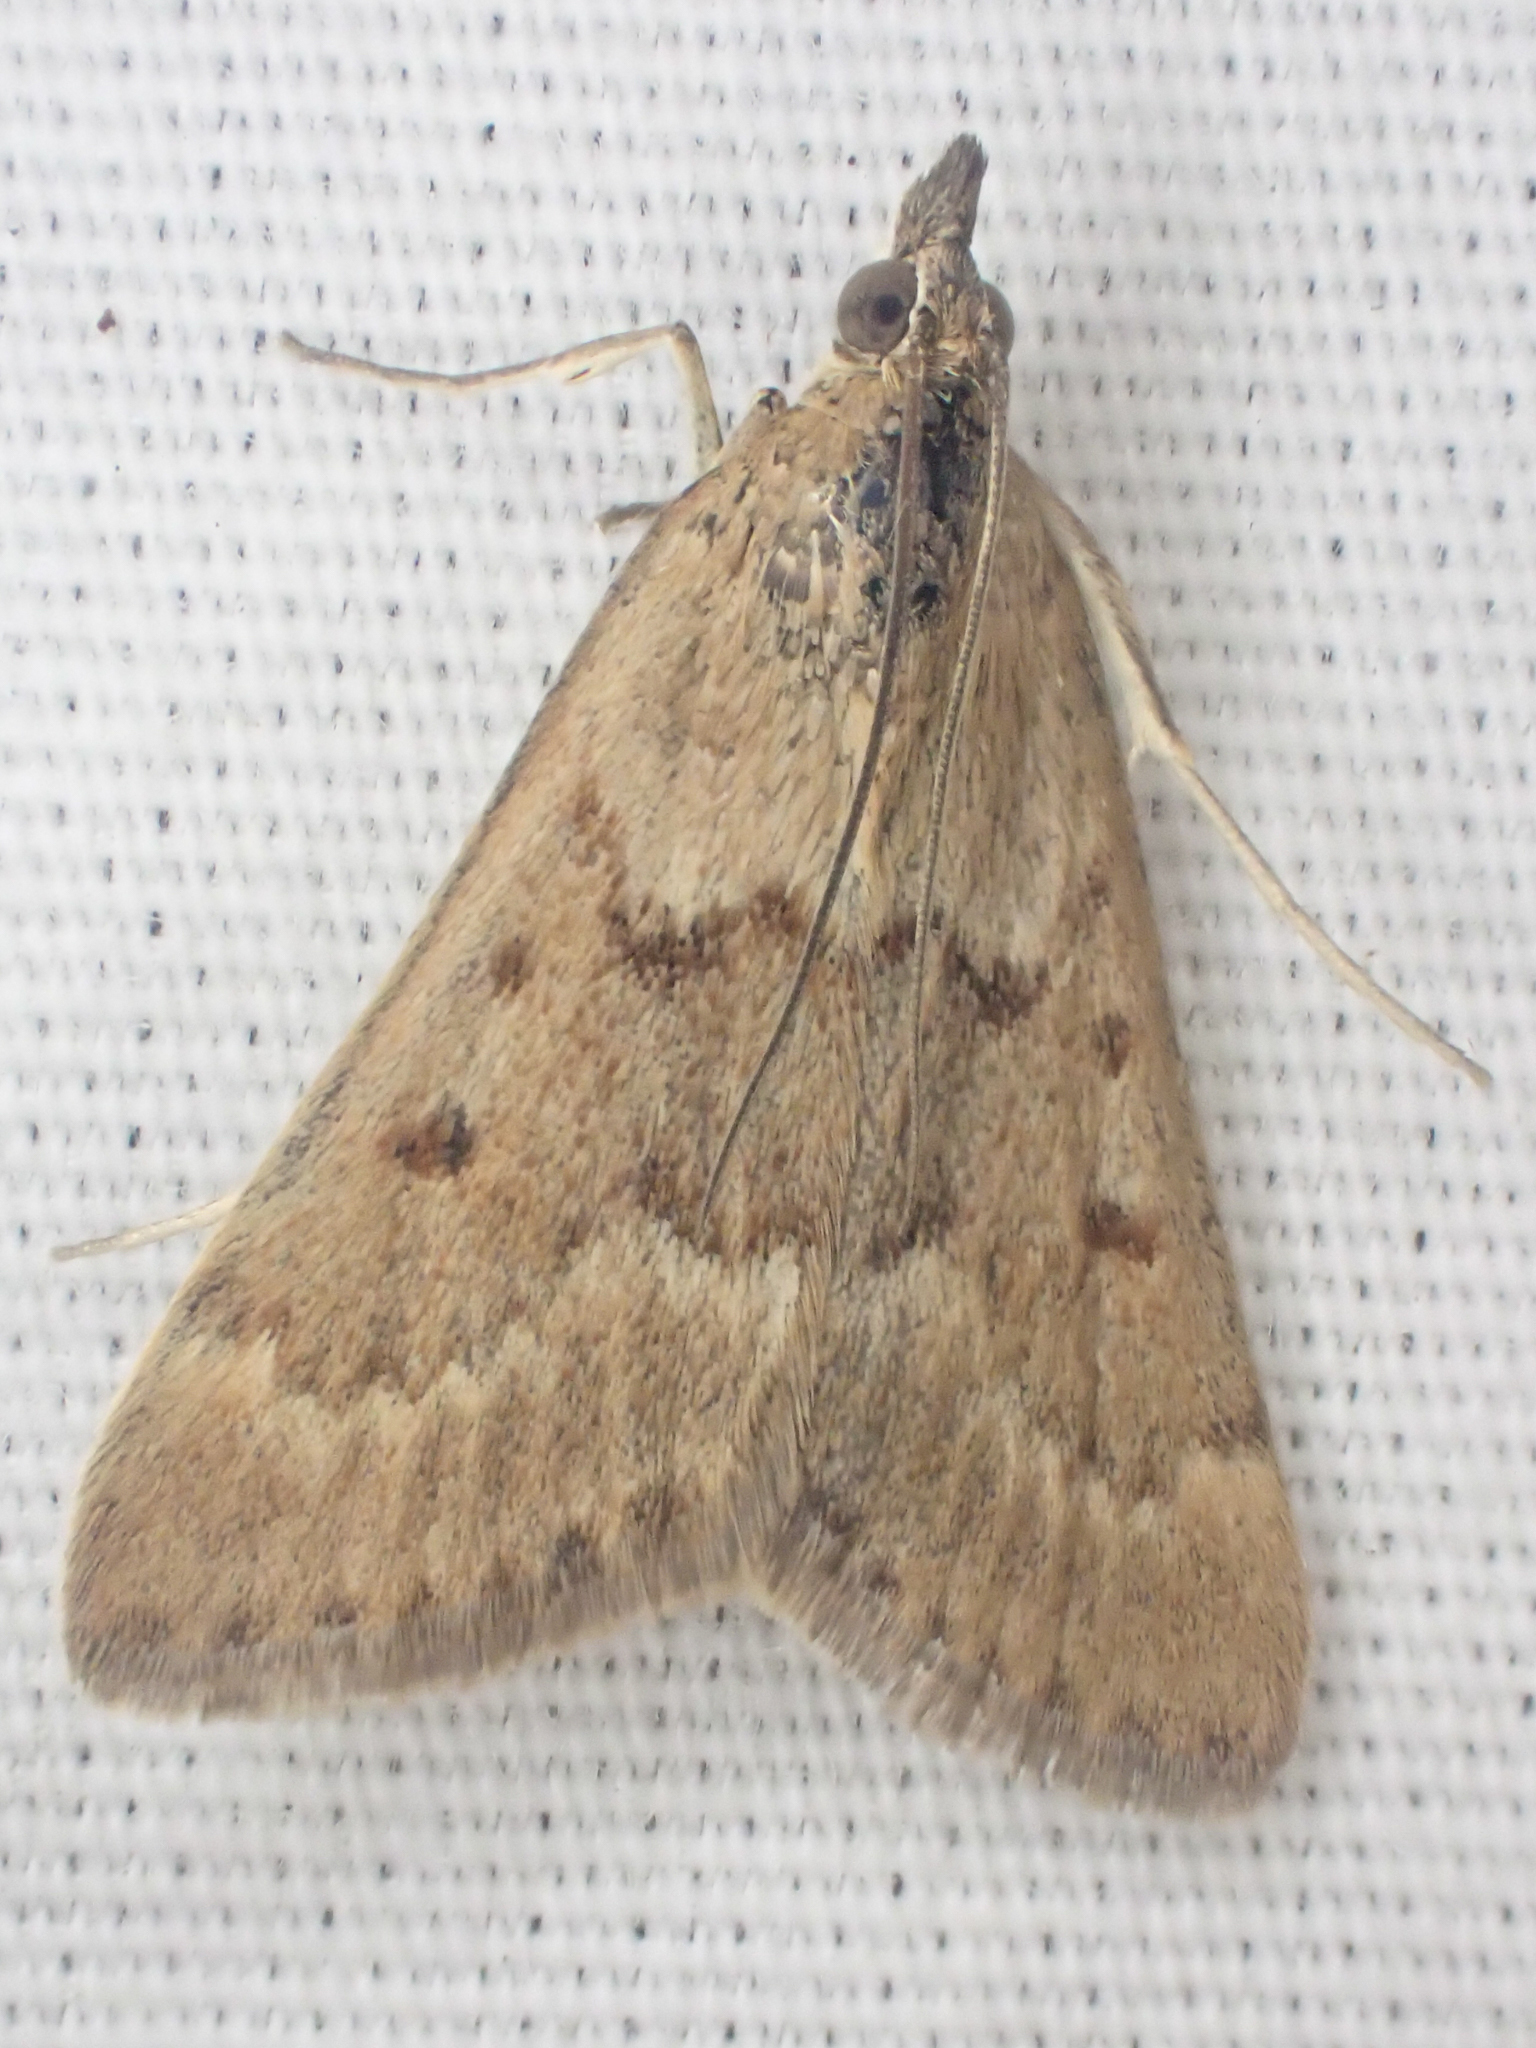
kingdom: Animalia
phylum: Arthropoda
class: Insecta
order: Lepidoptera
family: Crambidae
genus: Achyra
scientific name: Achyra rantalis
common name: Garden webworm
